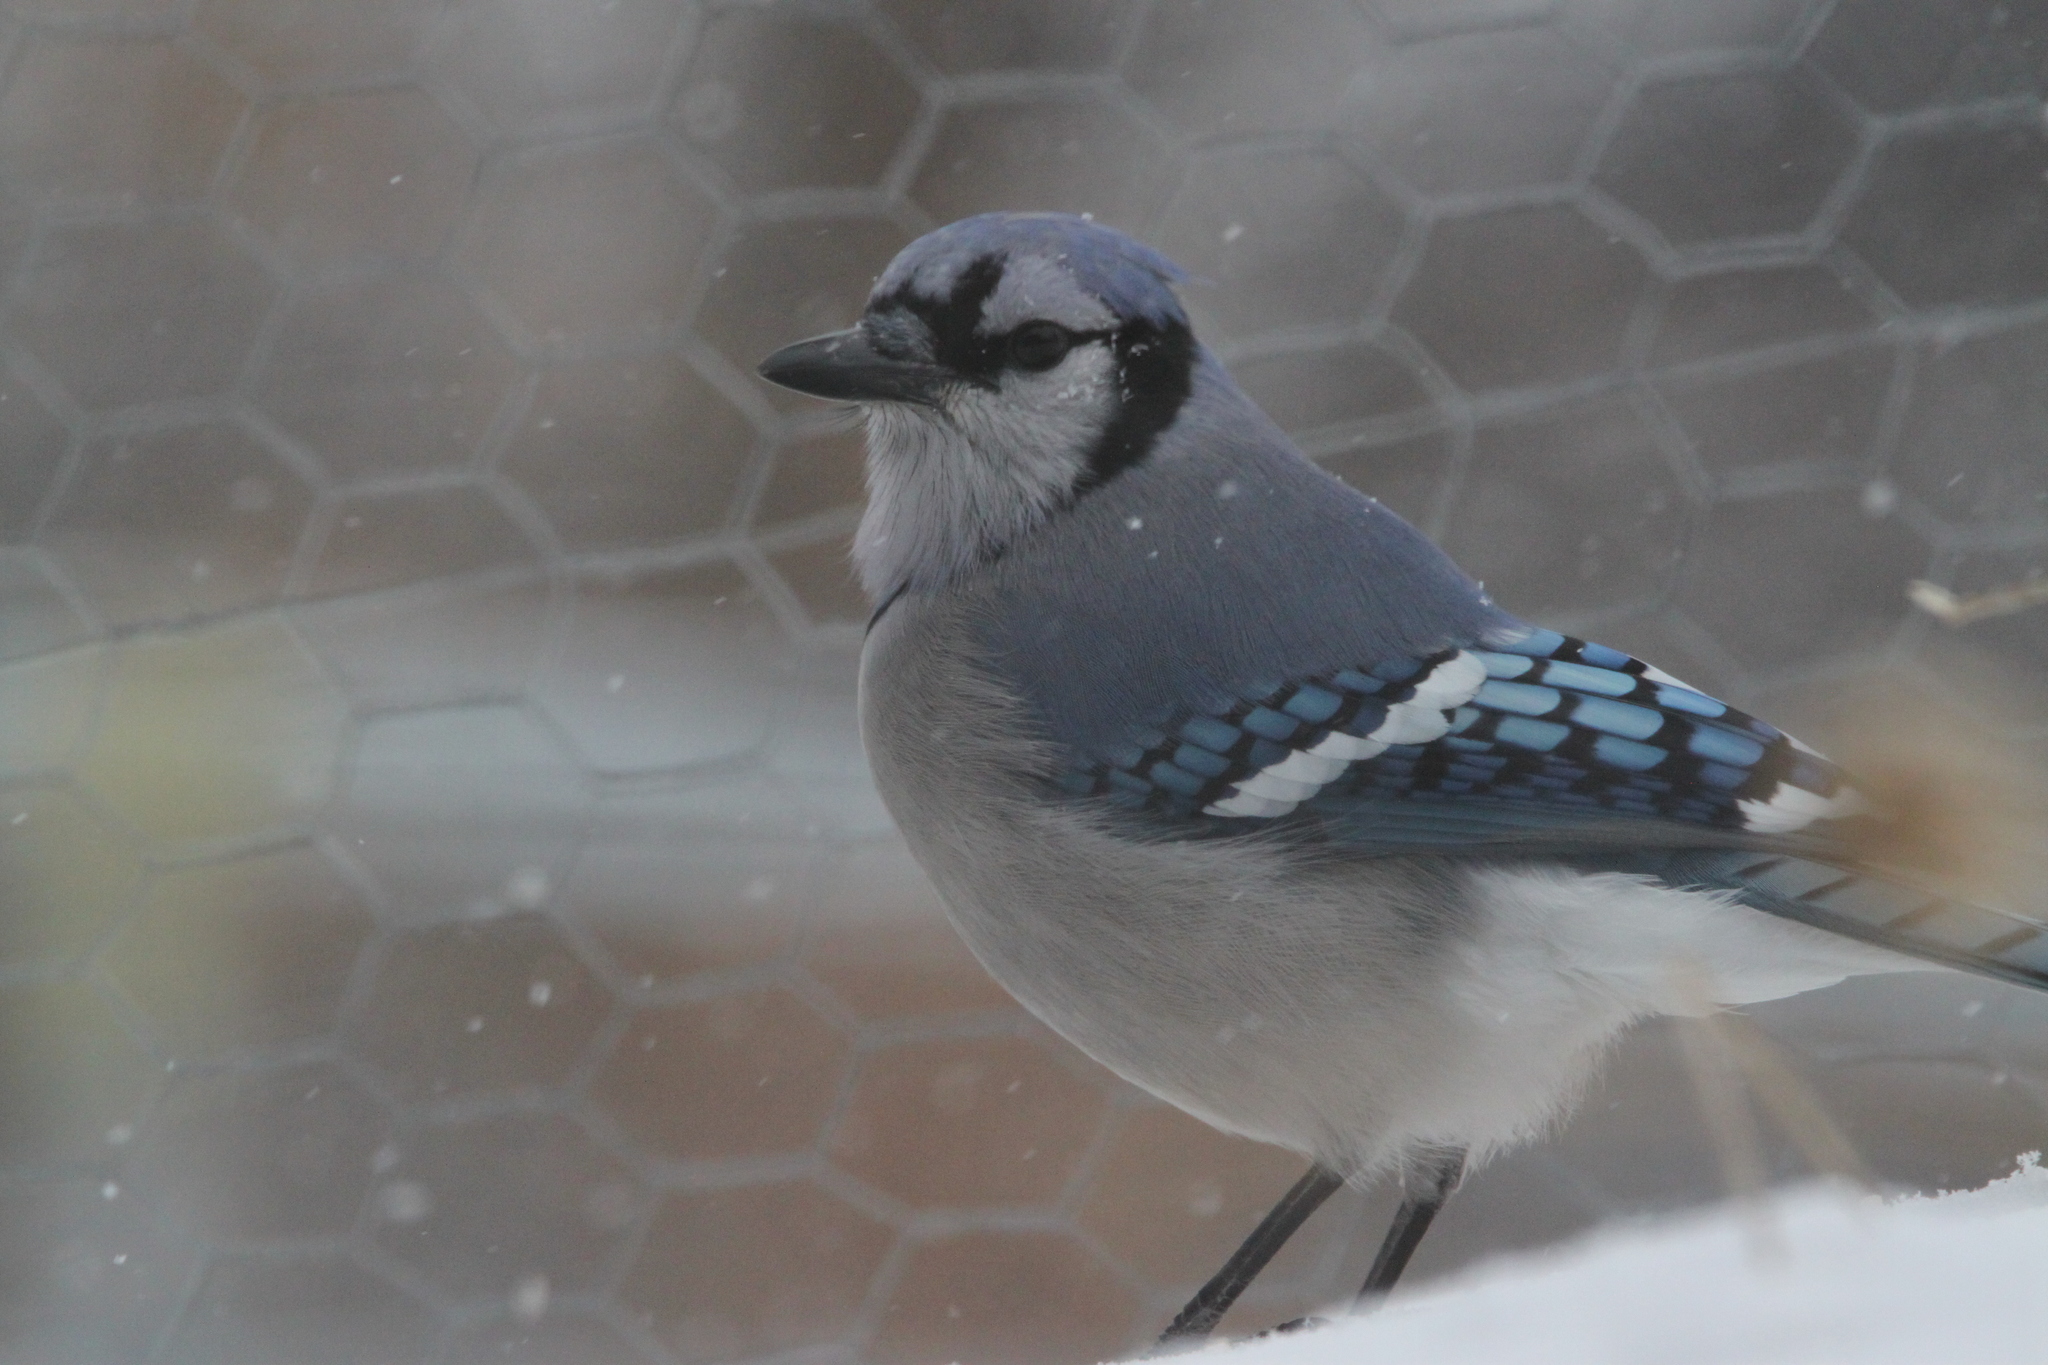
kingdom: Animalia
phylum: Chordata
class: Aves
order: Passeriformes
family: Corvidae
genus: Cyanocitta
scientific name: Cyanocitta cristata
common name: Blue jay
